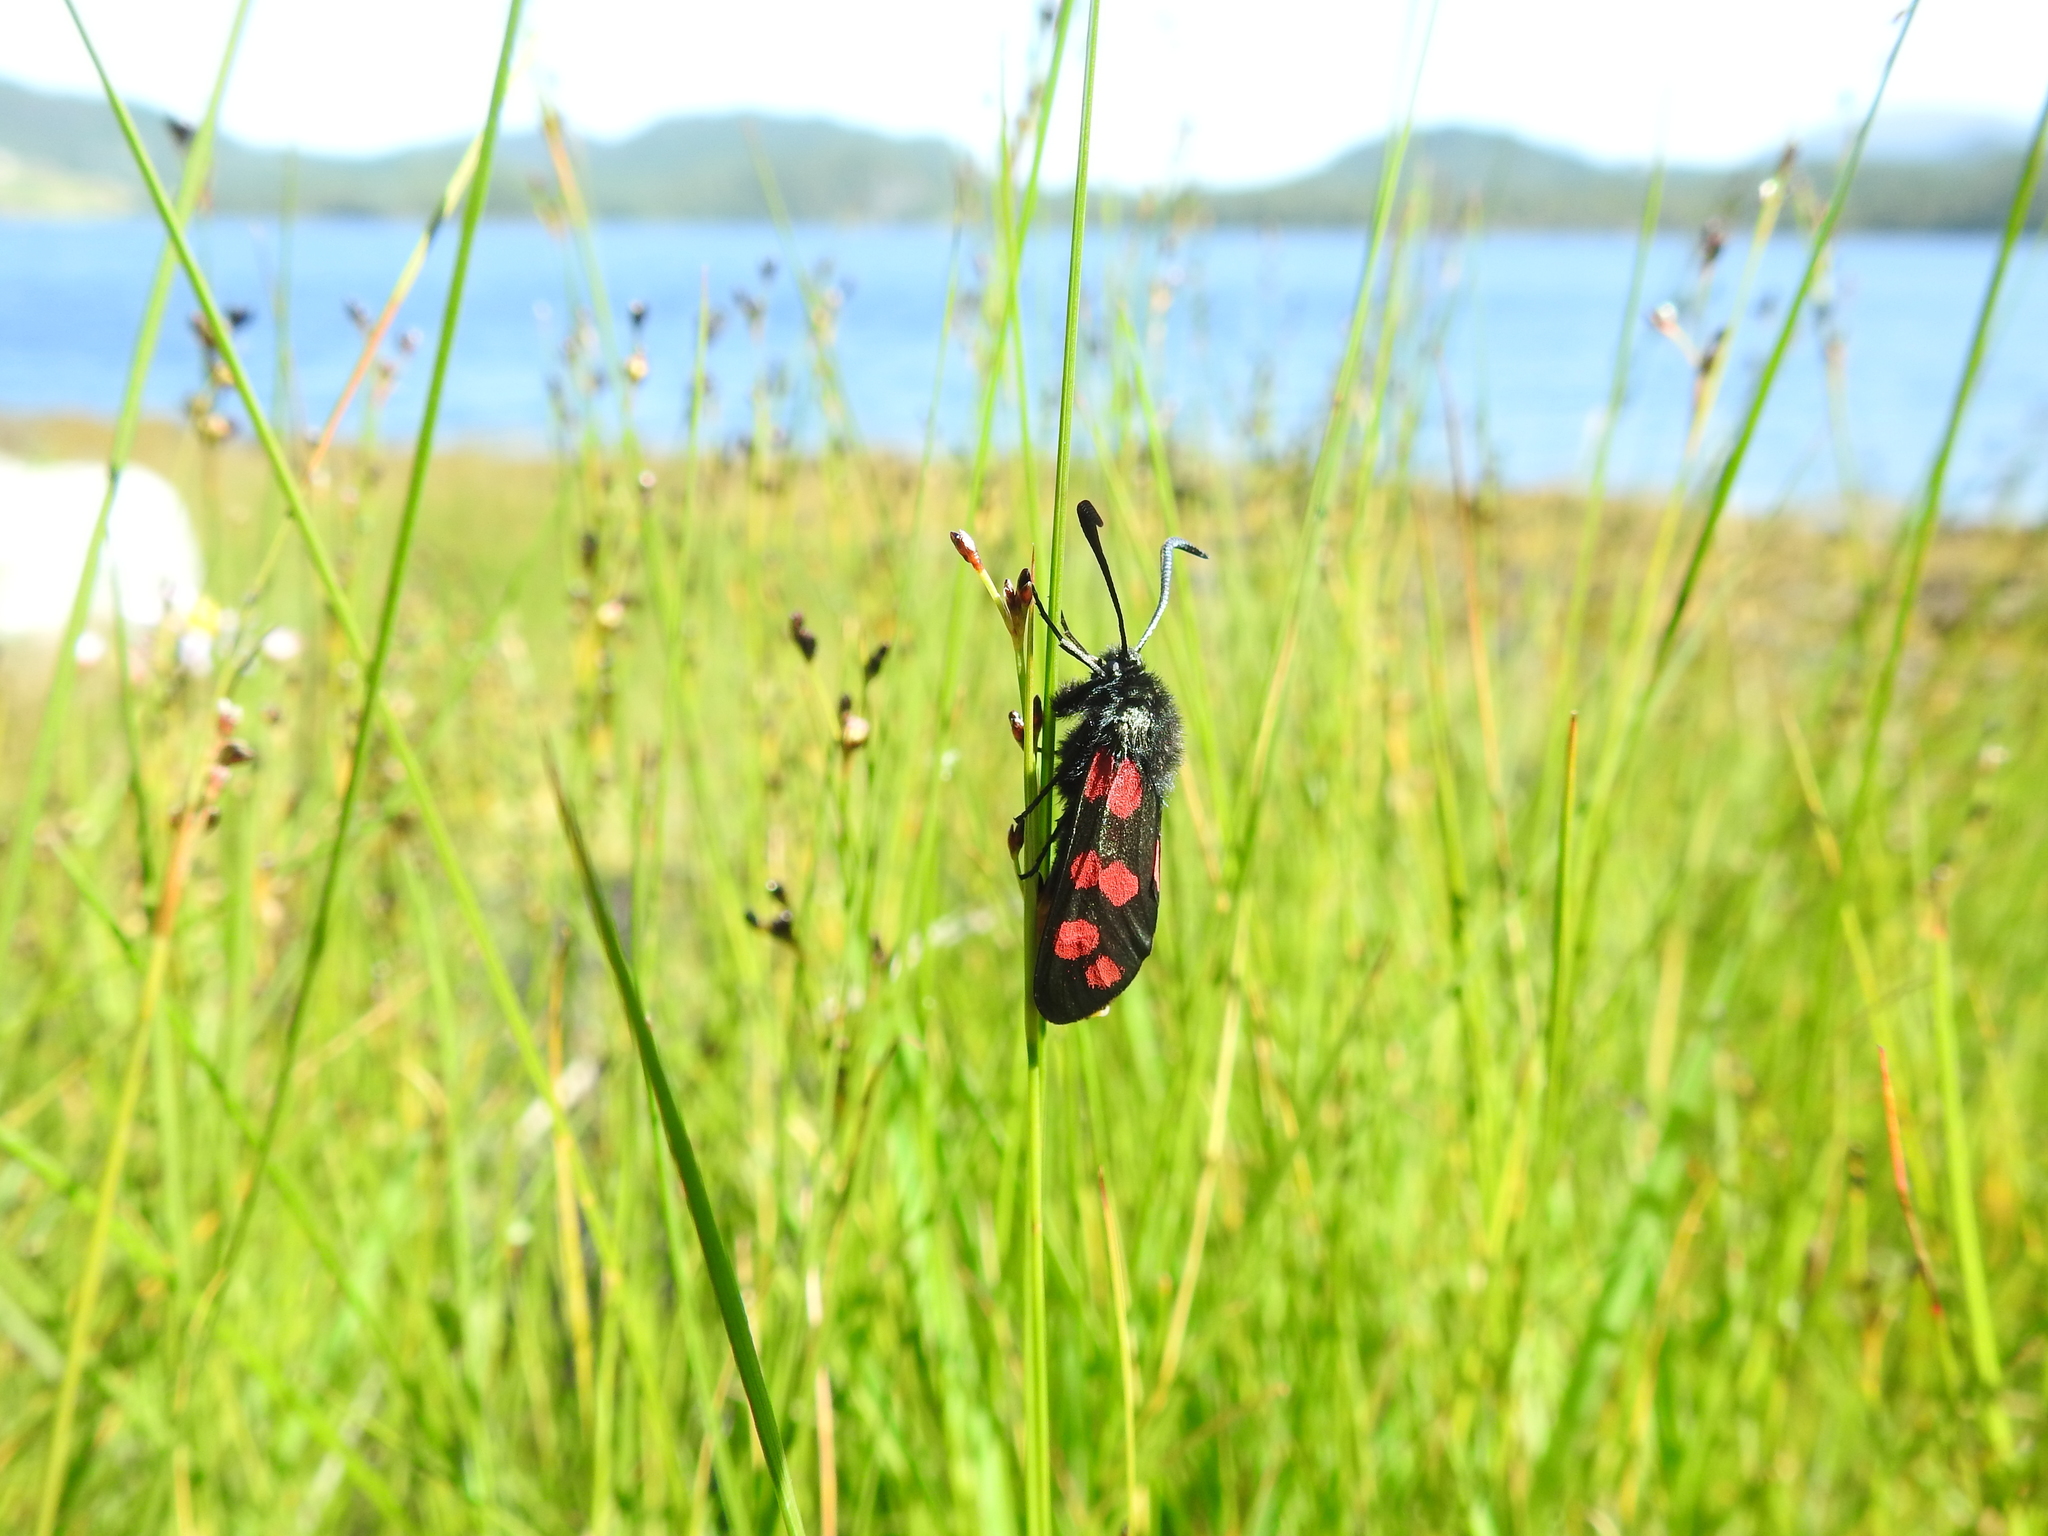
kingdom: Animalia
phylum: Arthropoda
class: Insecta
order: Lepidoptera
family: Zygaenidae
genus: Zygaena
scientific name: Zygaena filipendulae
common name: Six-spot burnet
